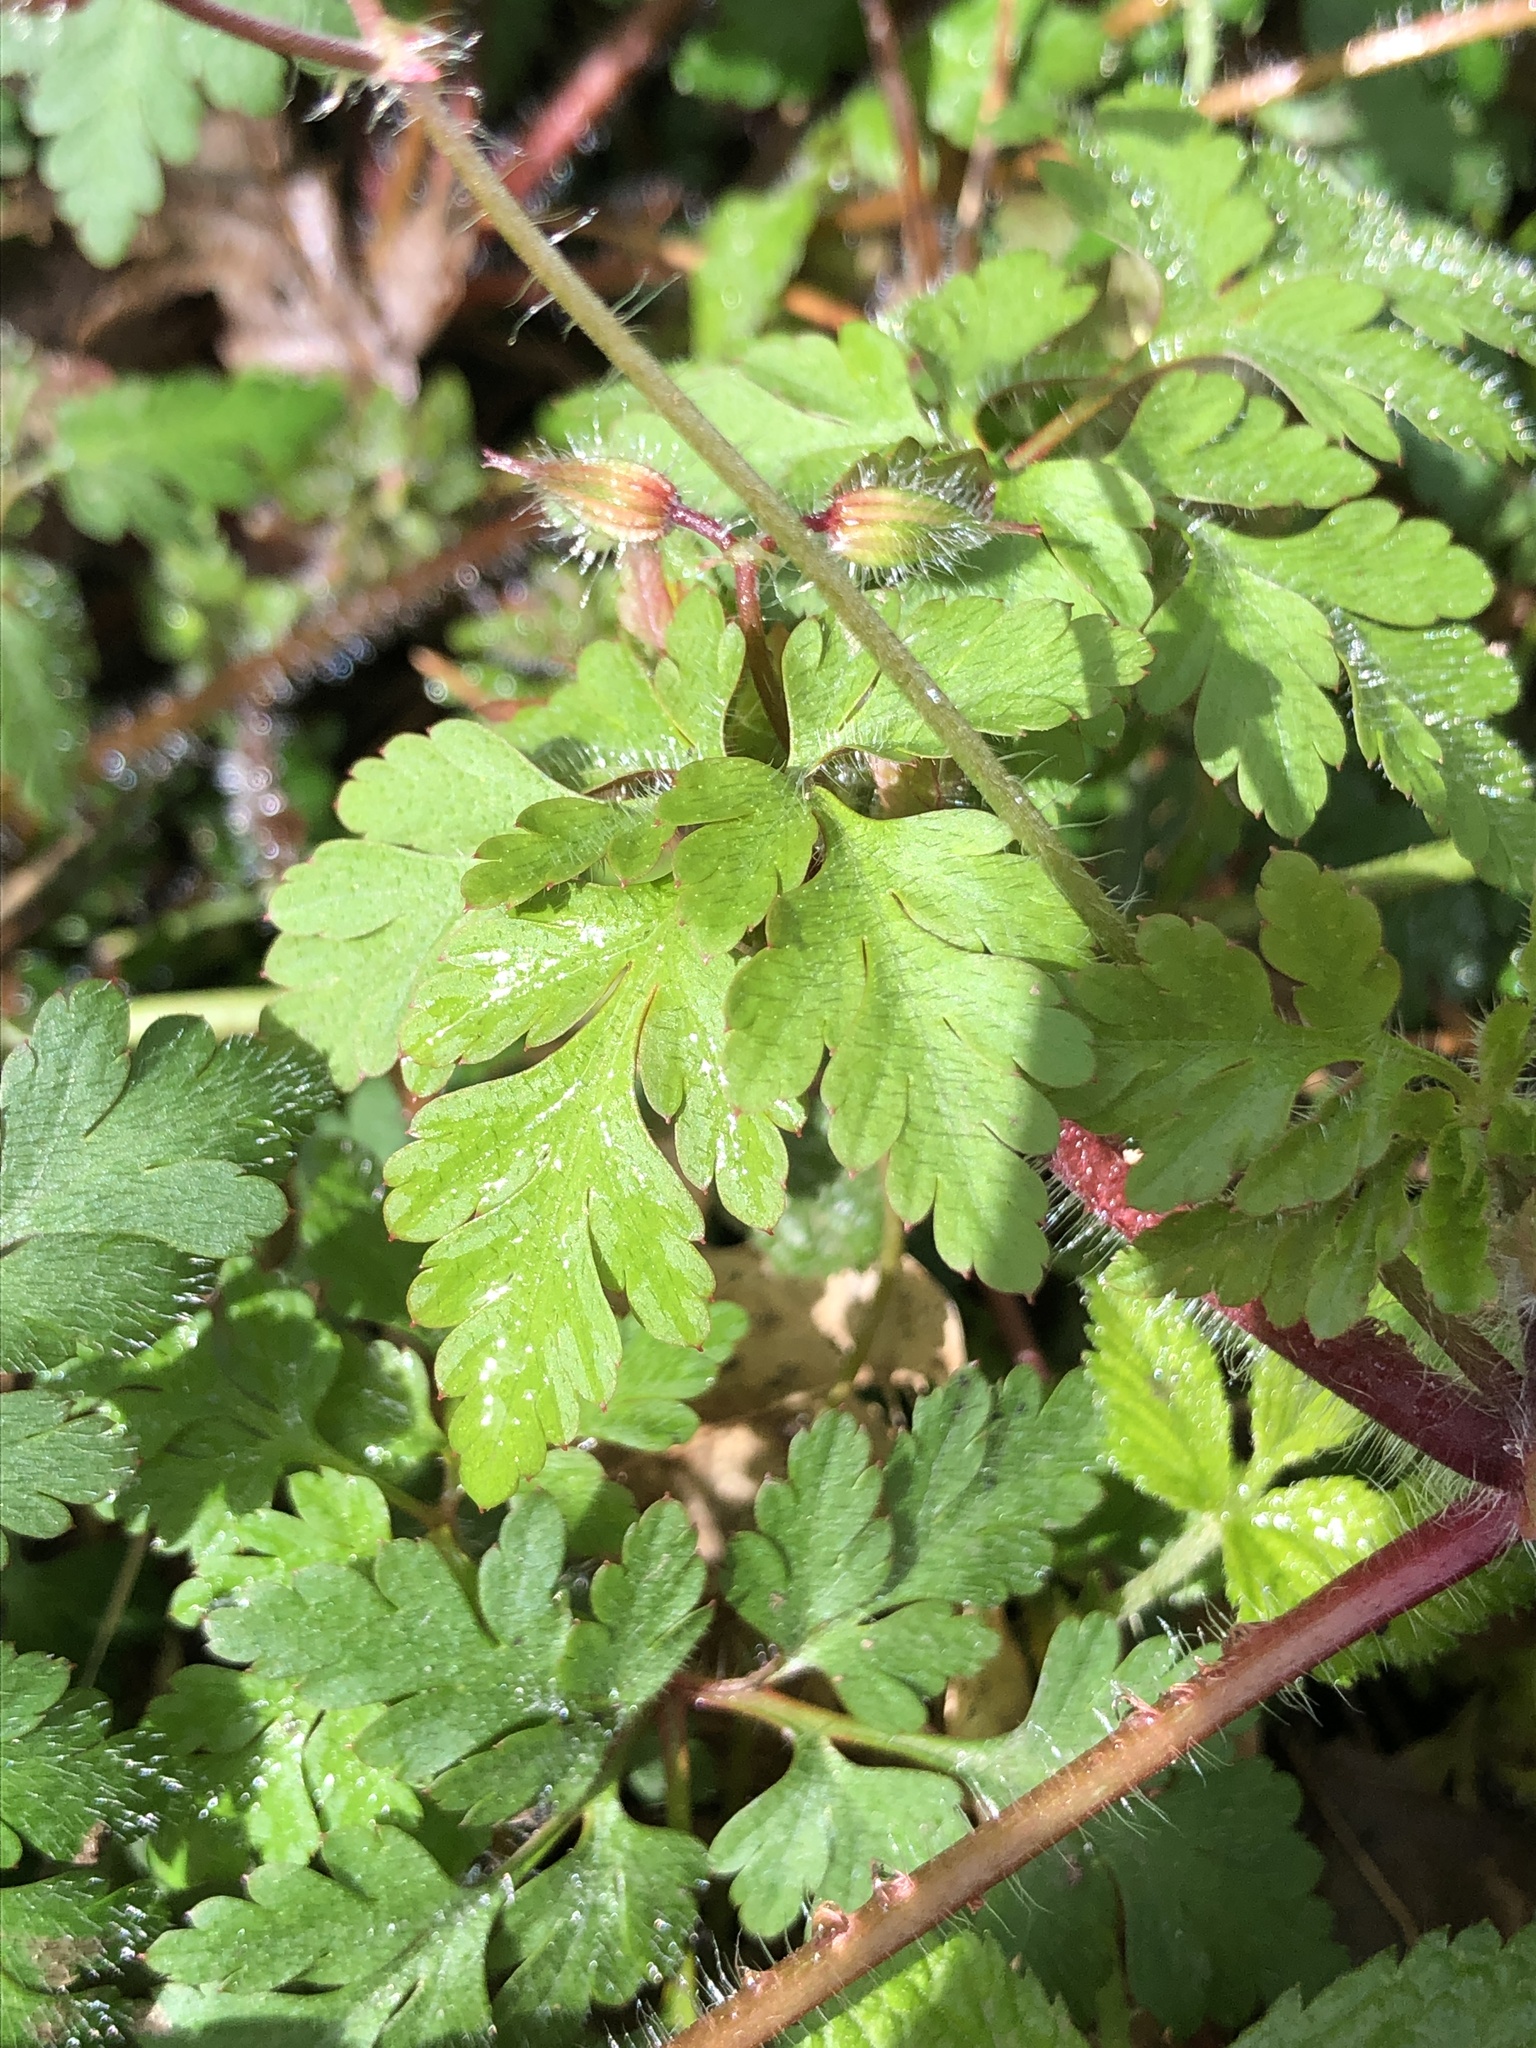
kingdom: Plantae
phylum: Tracheophyta
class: Magnoliopsida
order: Geraniales
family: Geraniaceae
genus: Geranium
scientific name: Geranium robertianum
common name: Herb-robert
